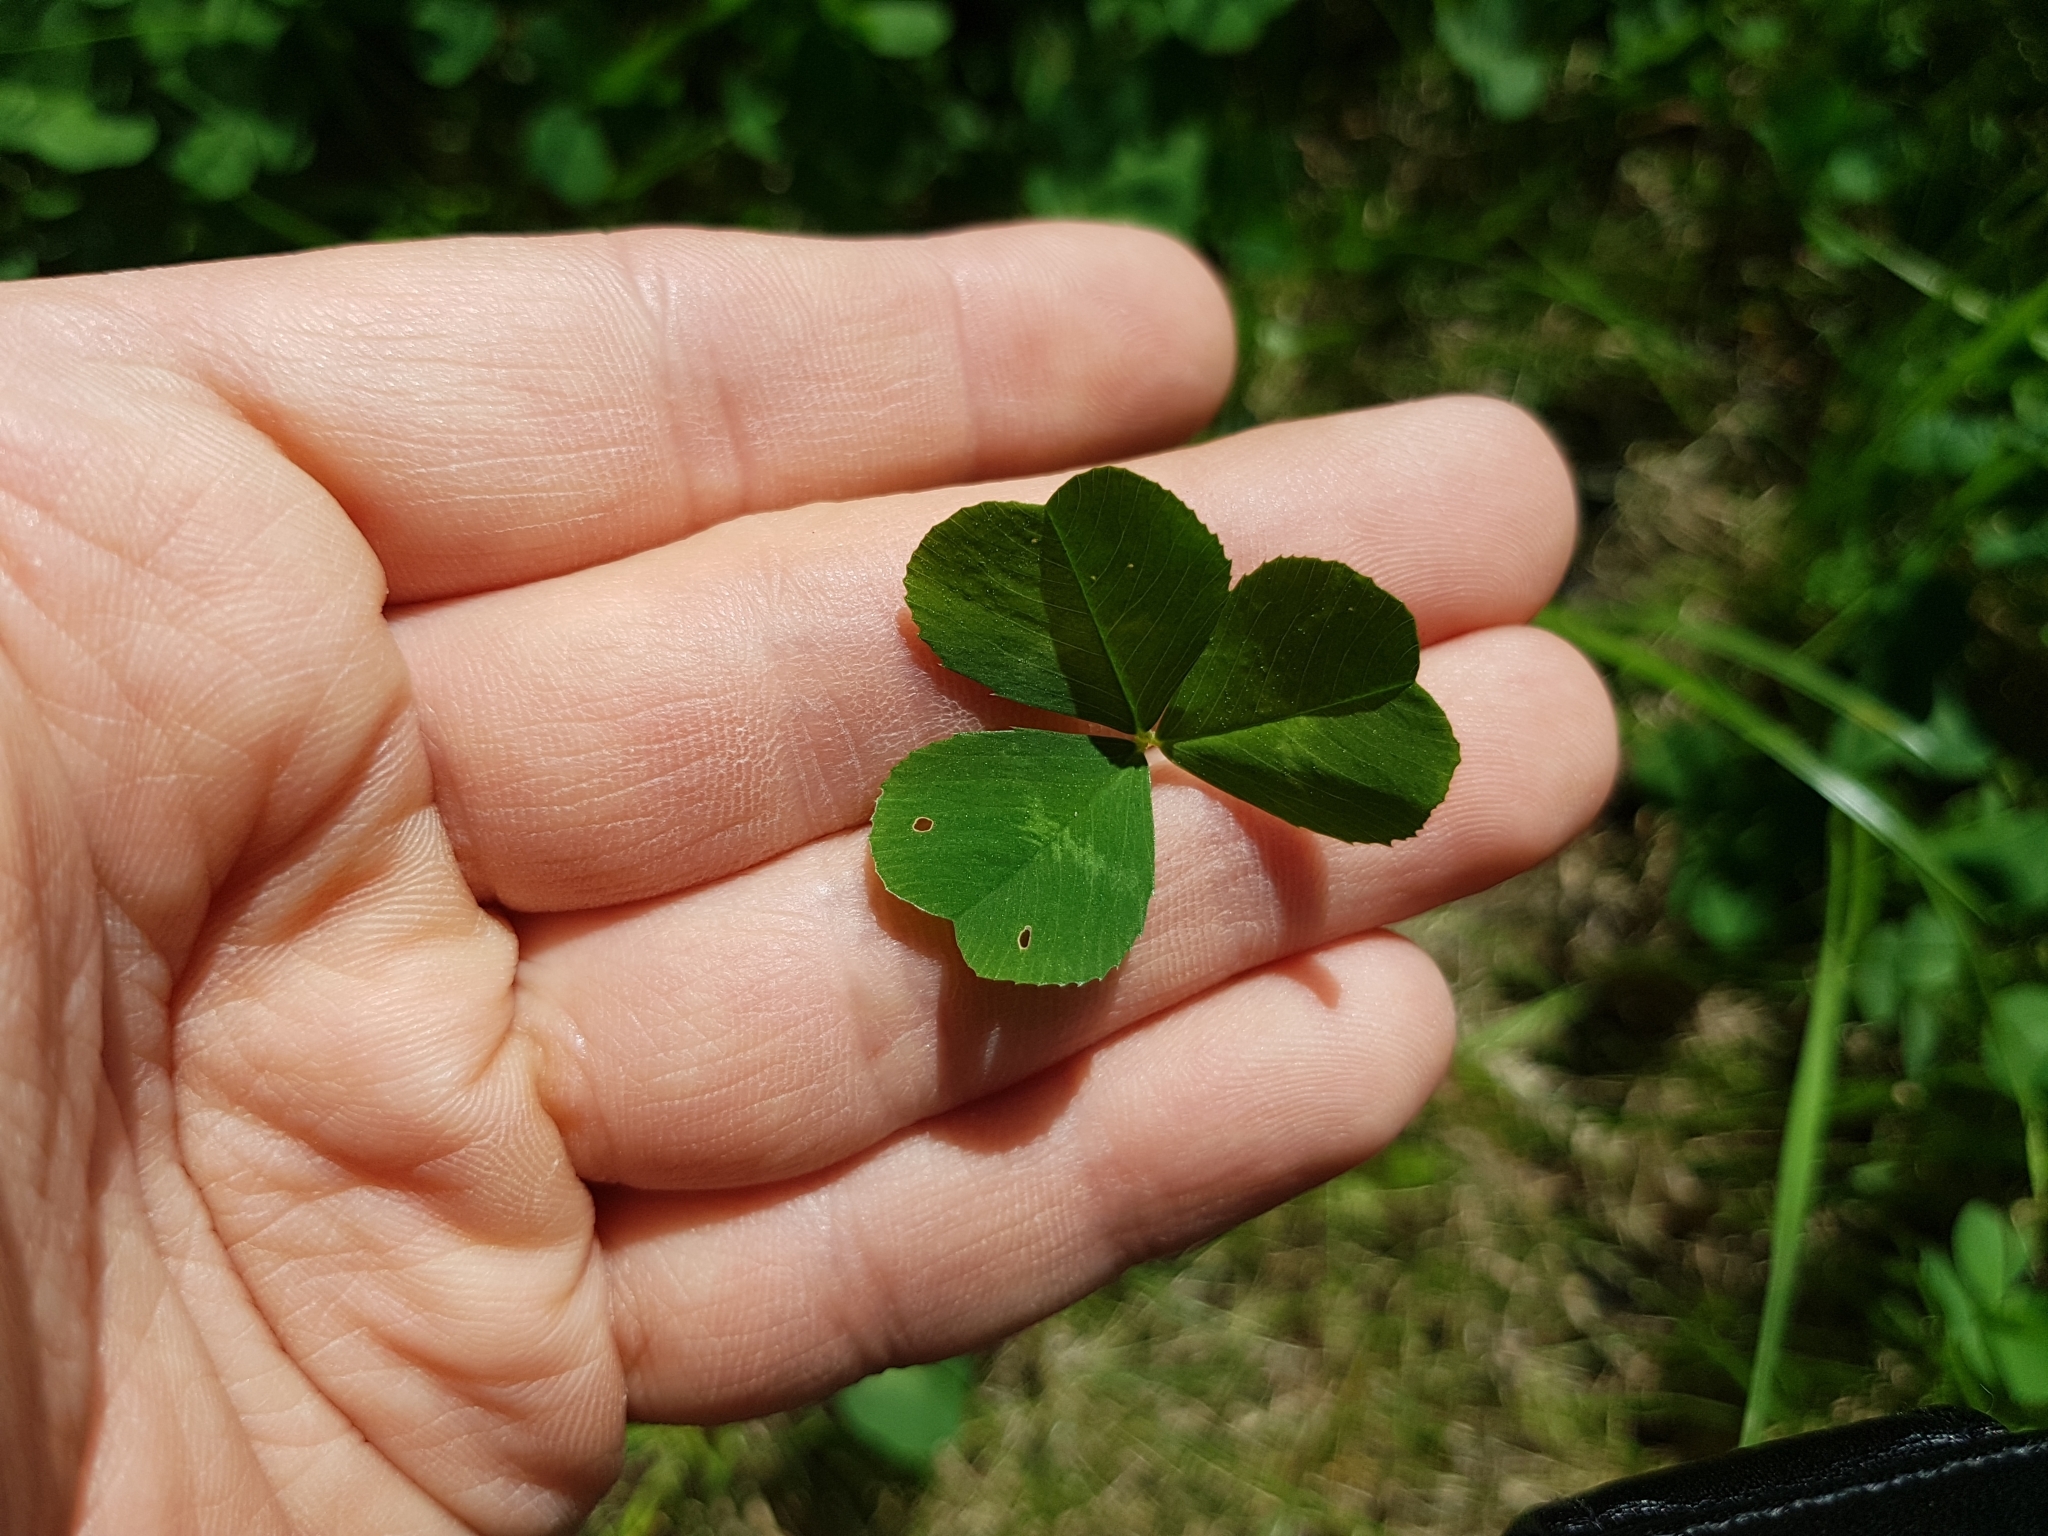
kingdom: Plantae
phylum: Tracheophyta
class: Magnoliopsida
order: Fabales
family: Fabaceae
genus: Trifolium
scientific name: Trifolium repens
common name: White clover
